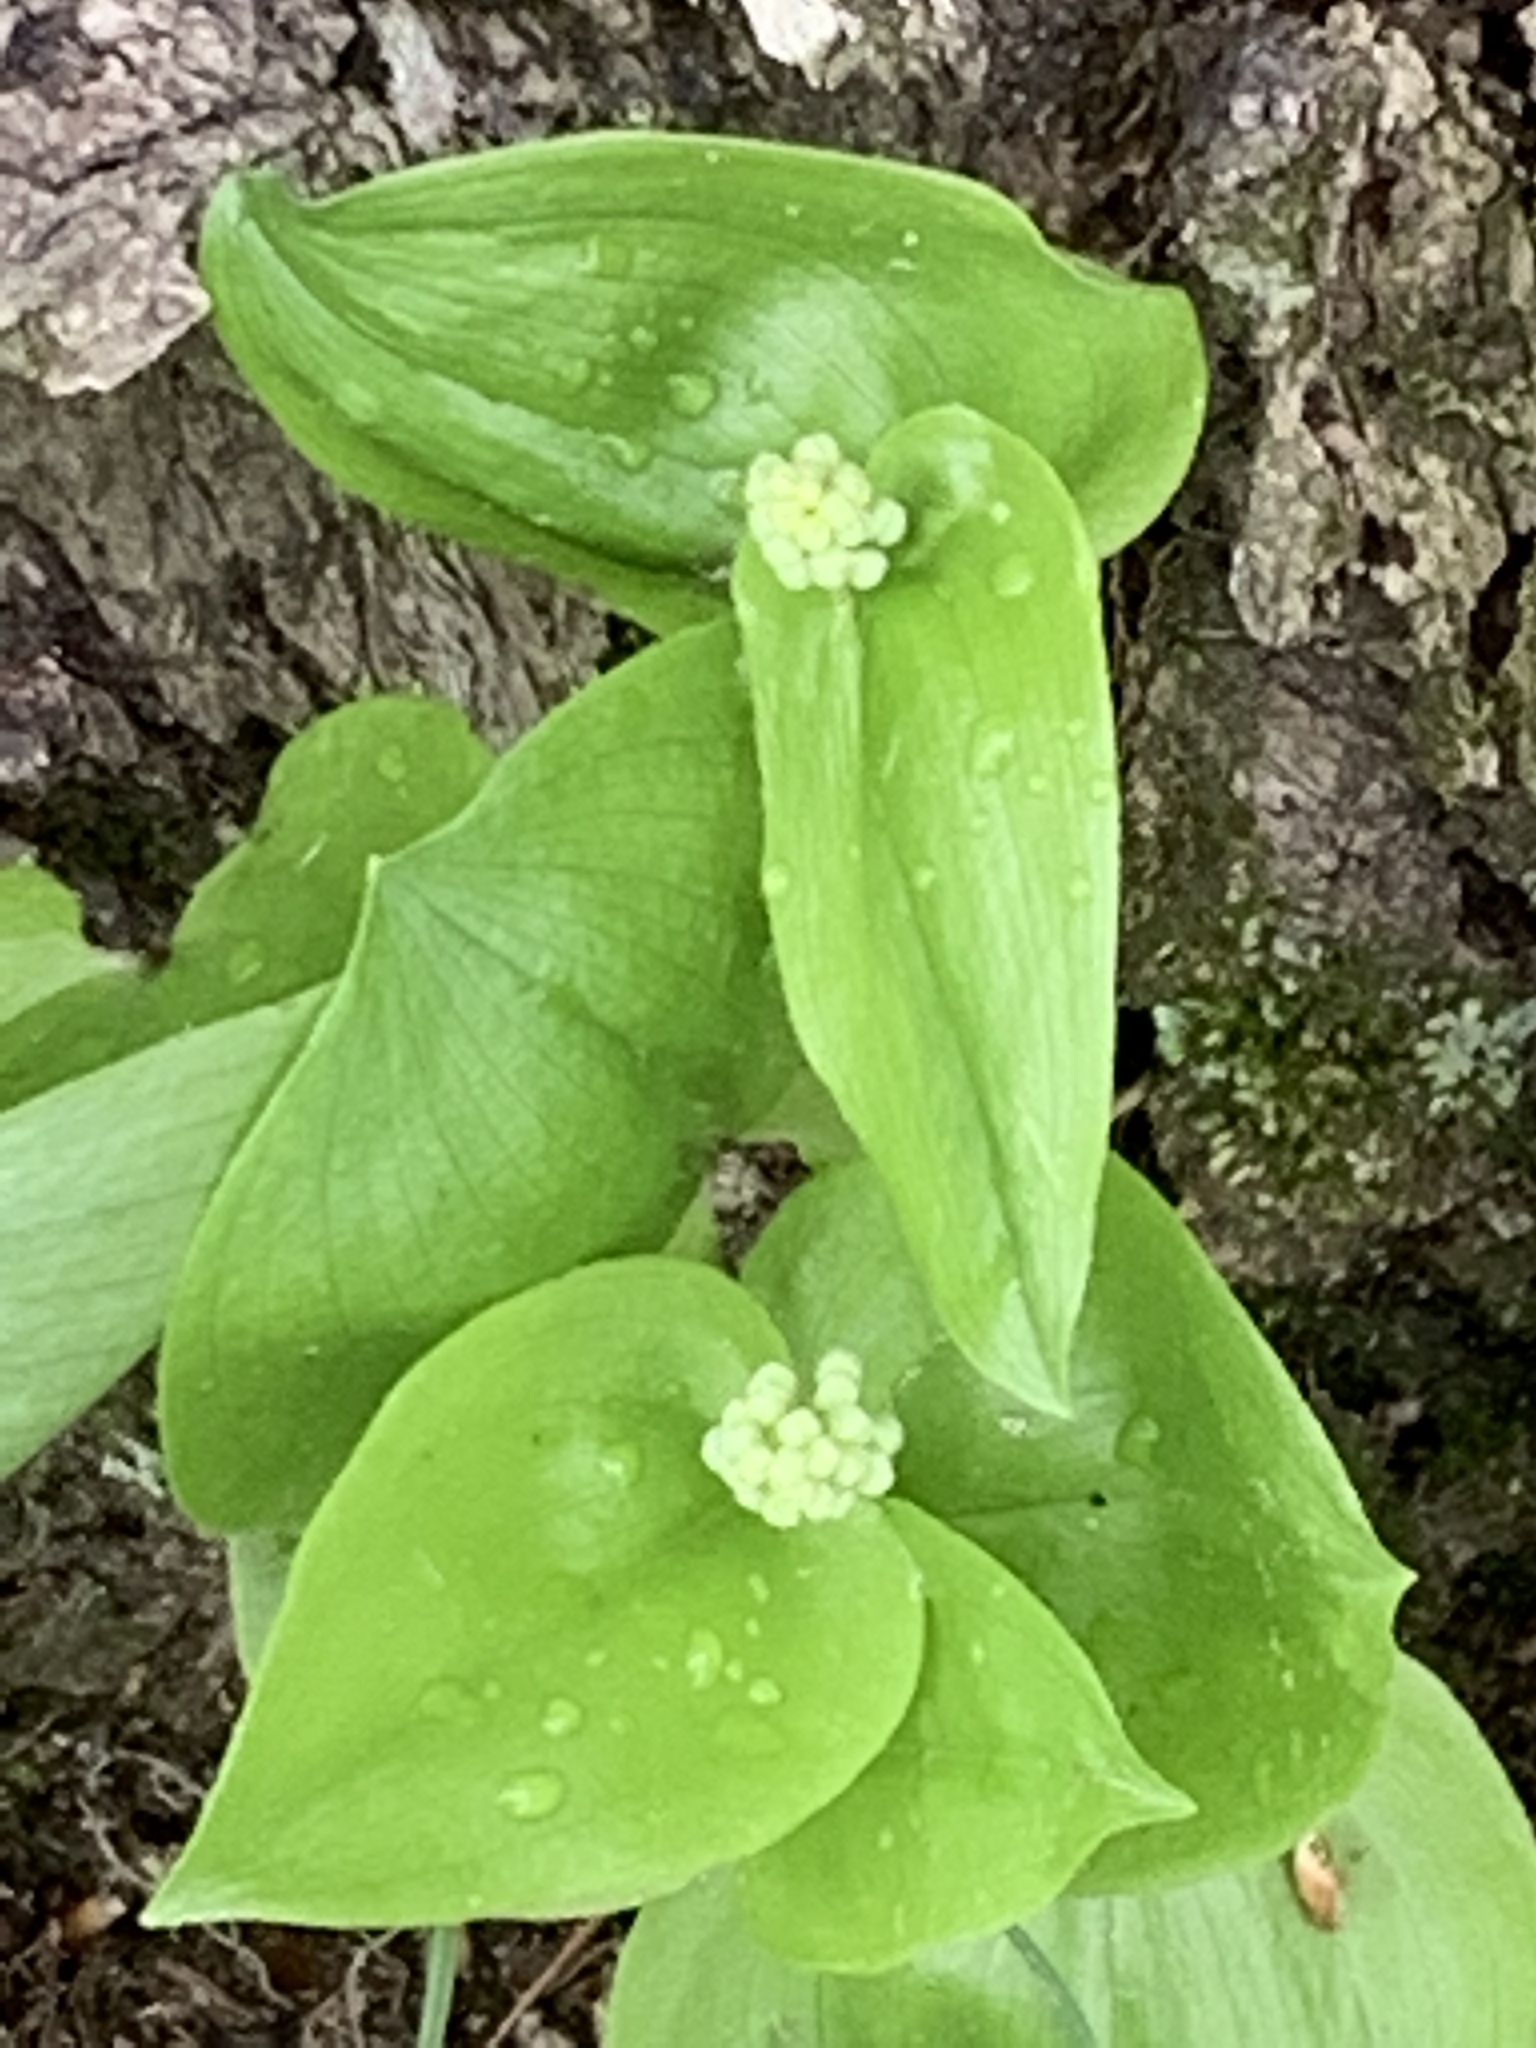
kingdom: Plantae
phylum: Tracheophyta
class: Liliopsida
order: Asparagales
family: Asparagaceae
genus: Maianthemum
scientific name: Maianthemum canadense
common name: False lily-of-the-valley
